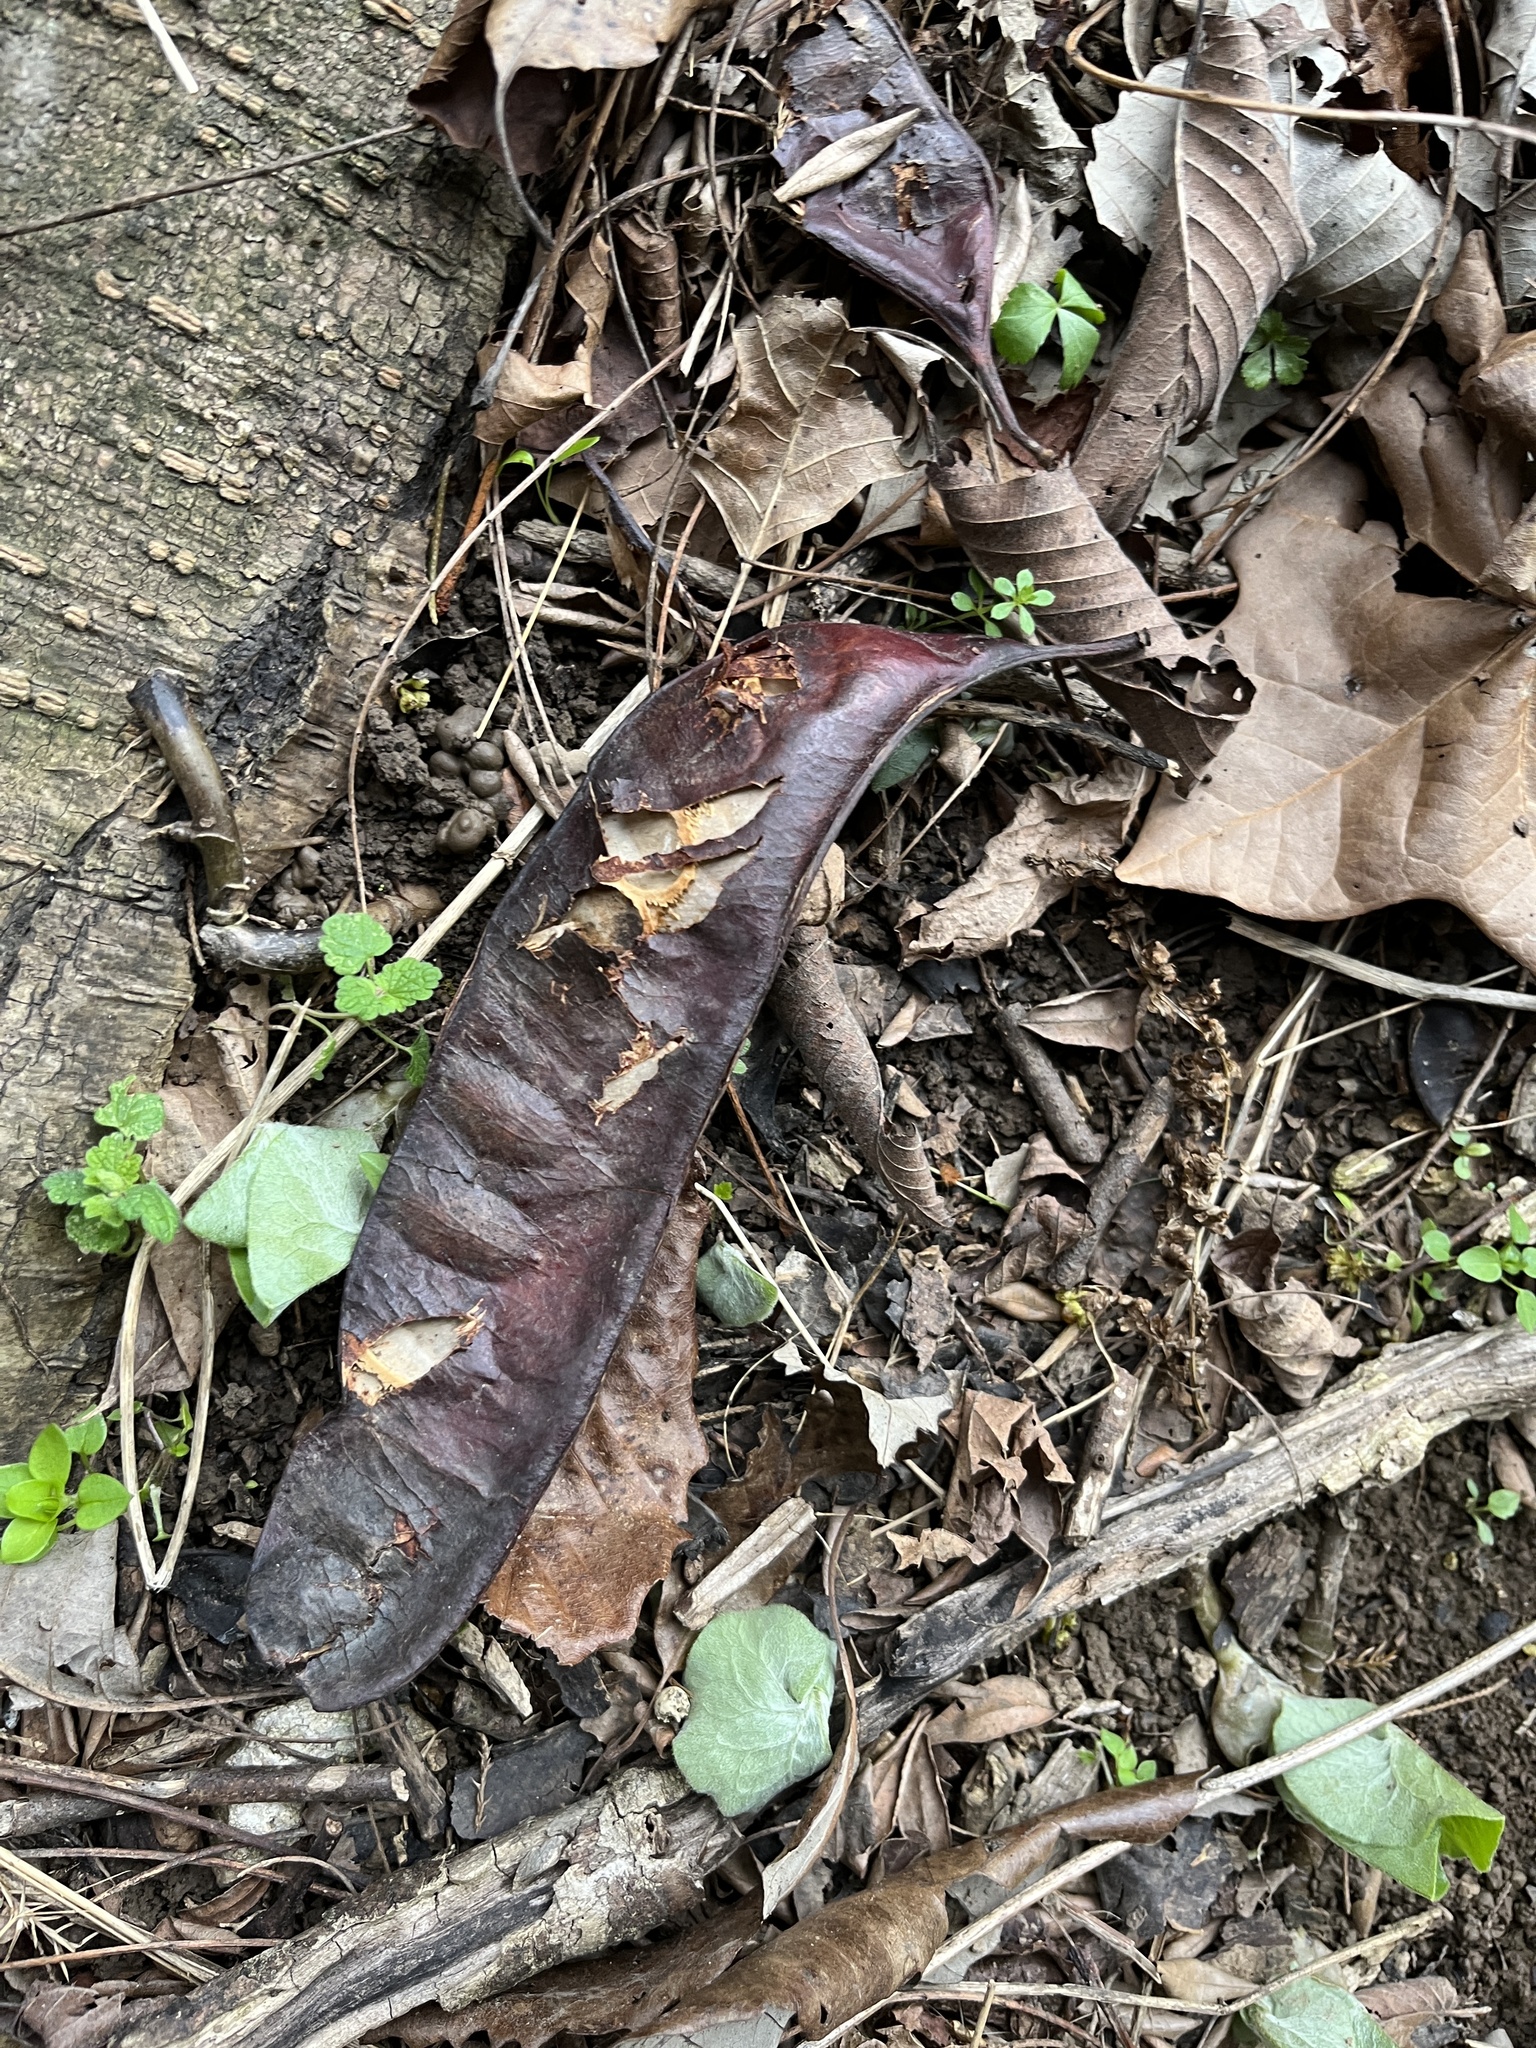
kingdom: Plantae
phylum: Tracheophyta
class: Magnoliopsida
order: Fabales
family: Fabaceae
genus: Gleditsia
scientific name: Gleditsia triacanthos
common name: Common honeylocust
